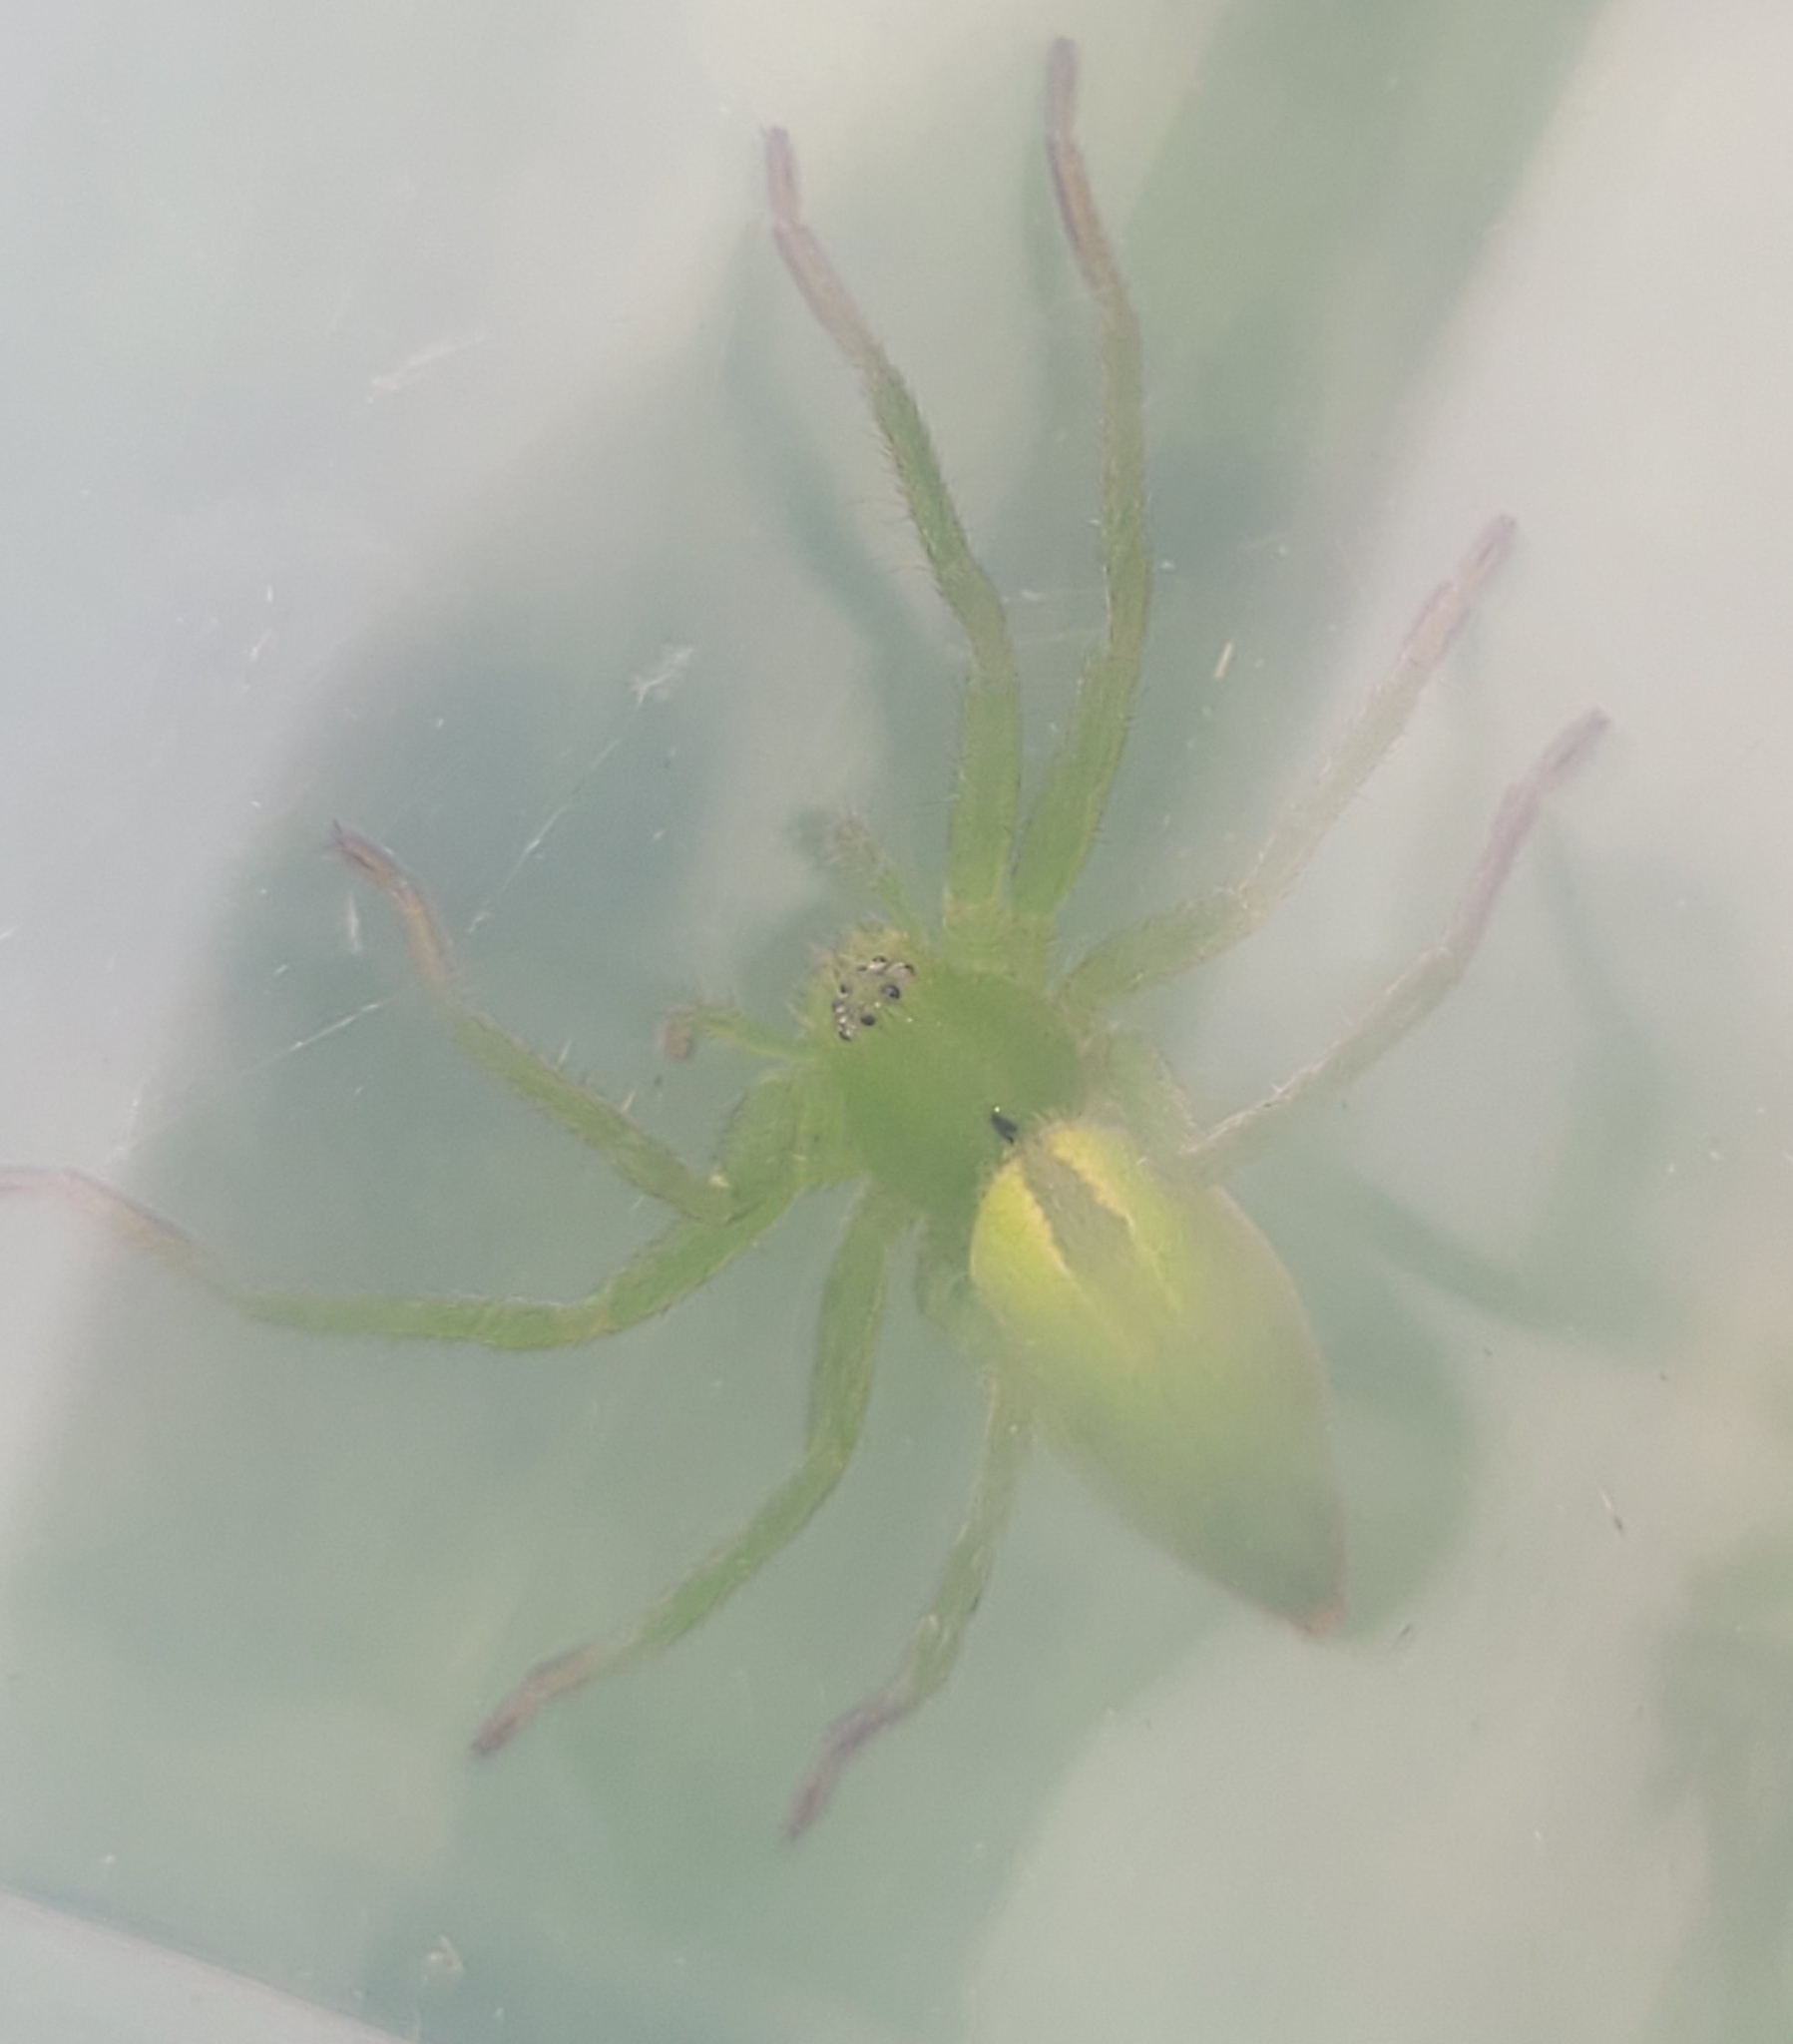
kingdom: Animalia
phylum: Arthropoda
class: Arachnida
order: Araneae
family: Sparassidae
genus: Micrommata
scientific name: Micrommata ligurina
